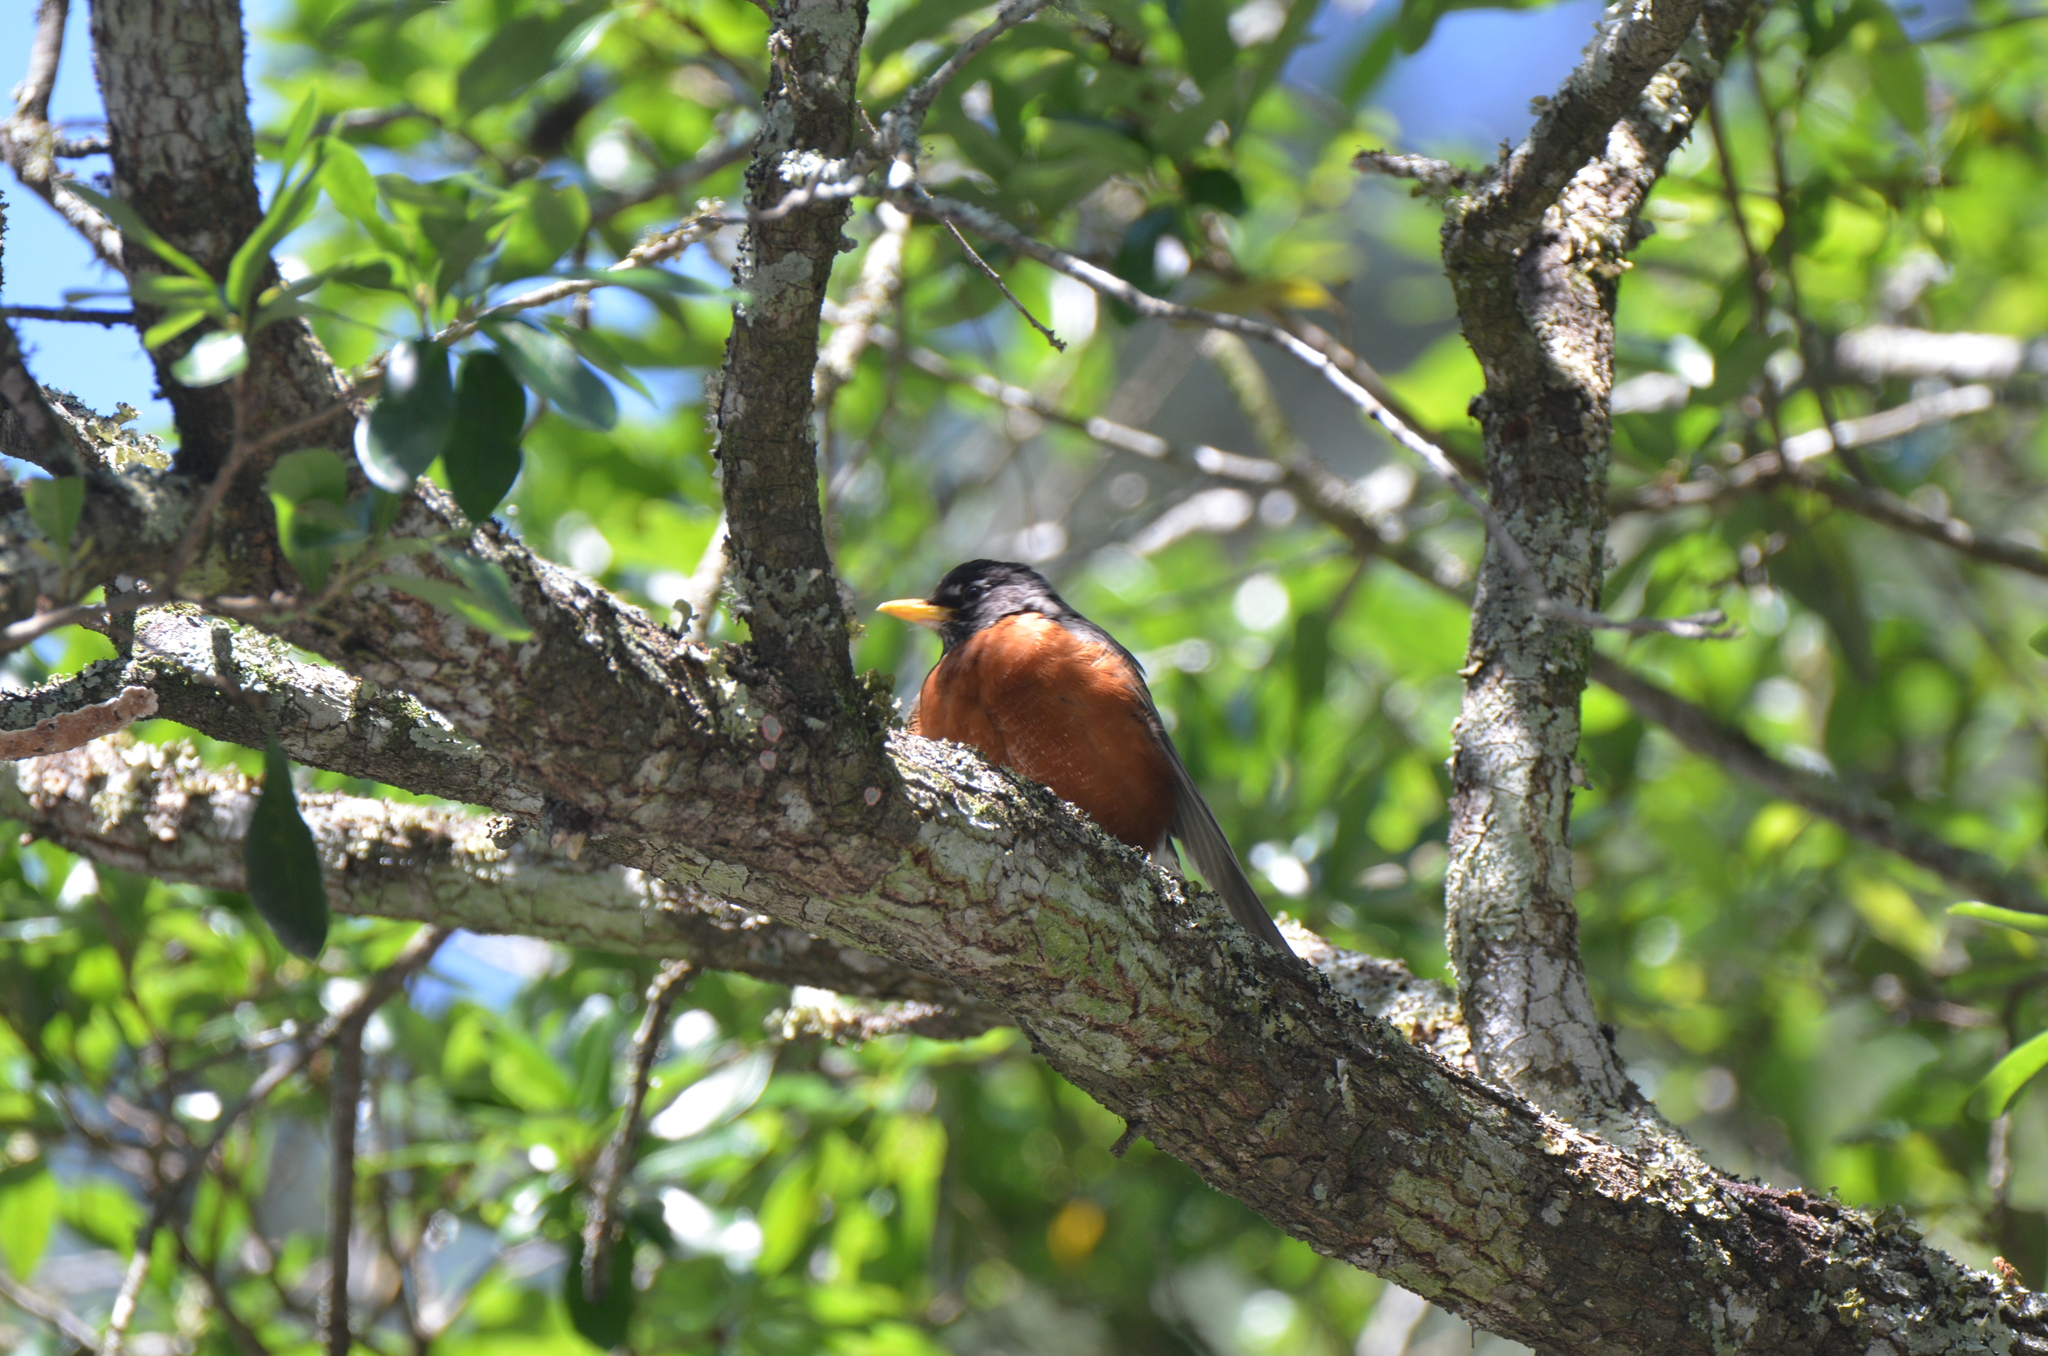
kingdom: Animalia
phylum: Chordata
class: Aves
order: Passeriformes
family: Turdidae
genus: Turdus
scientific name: Turdus migratorius
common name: American robin
